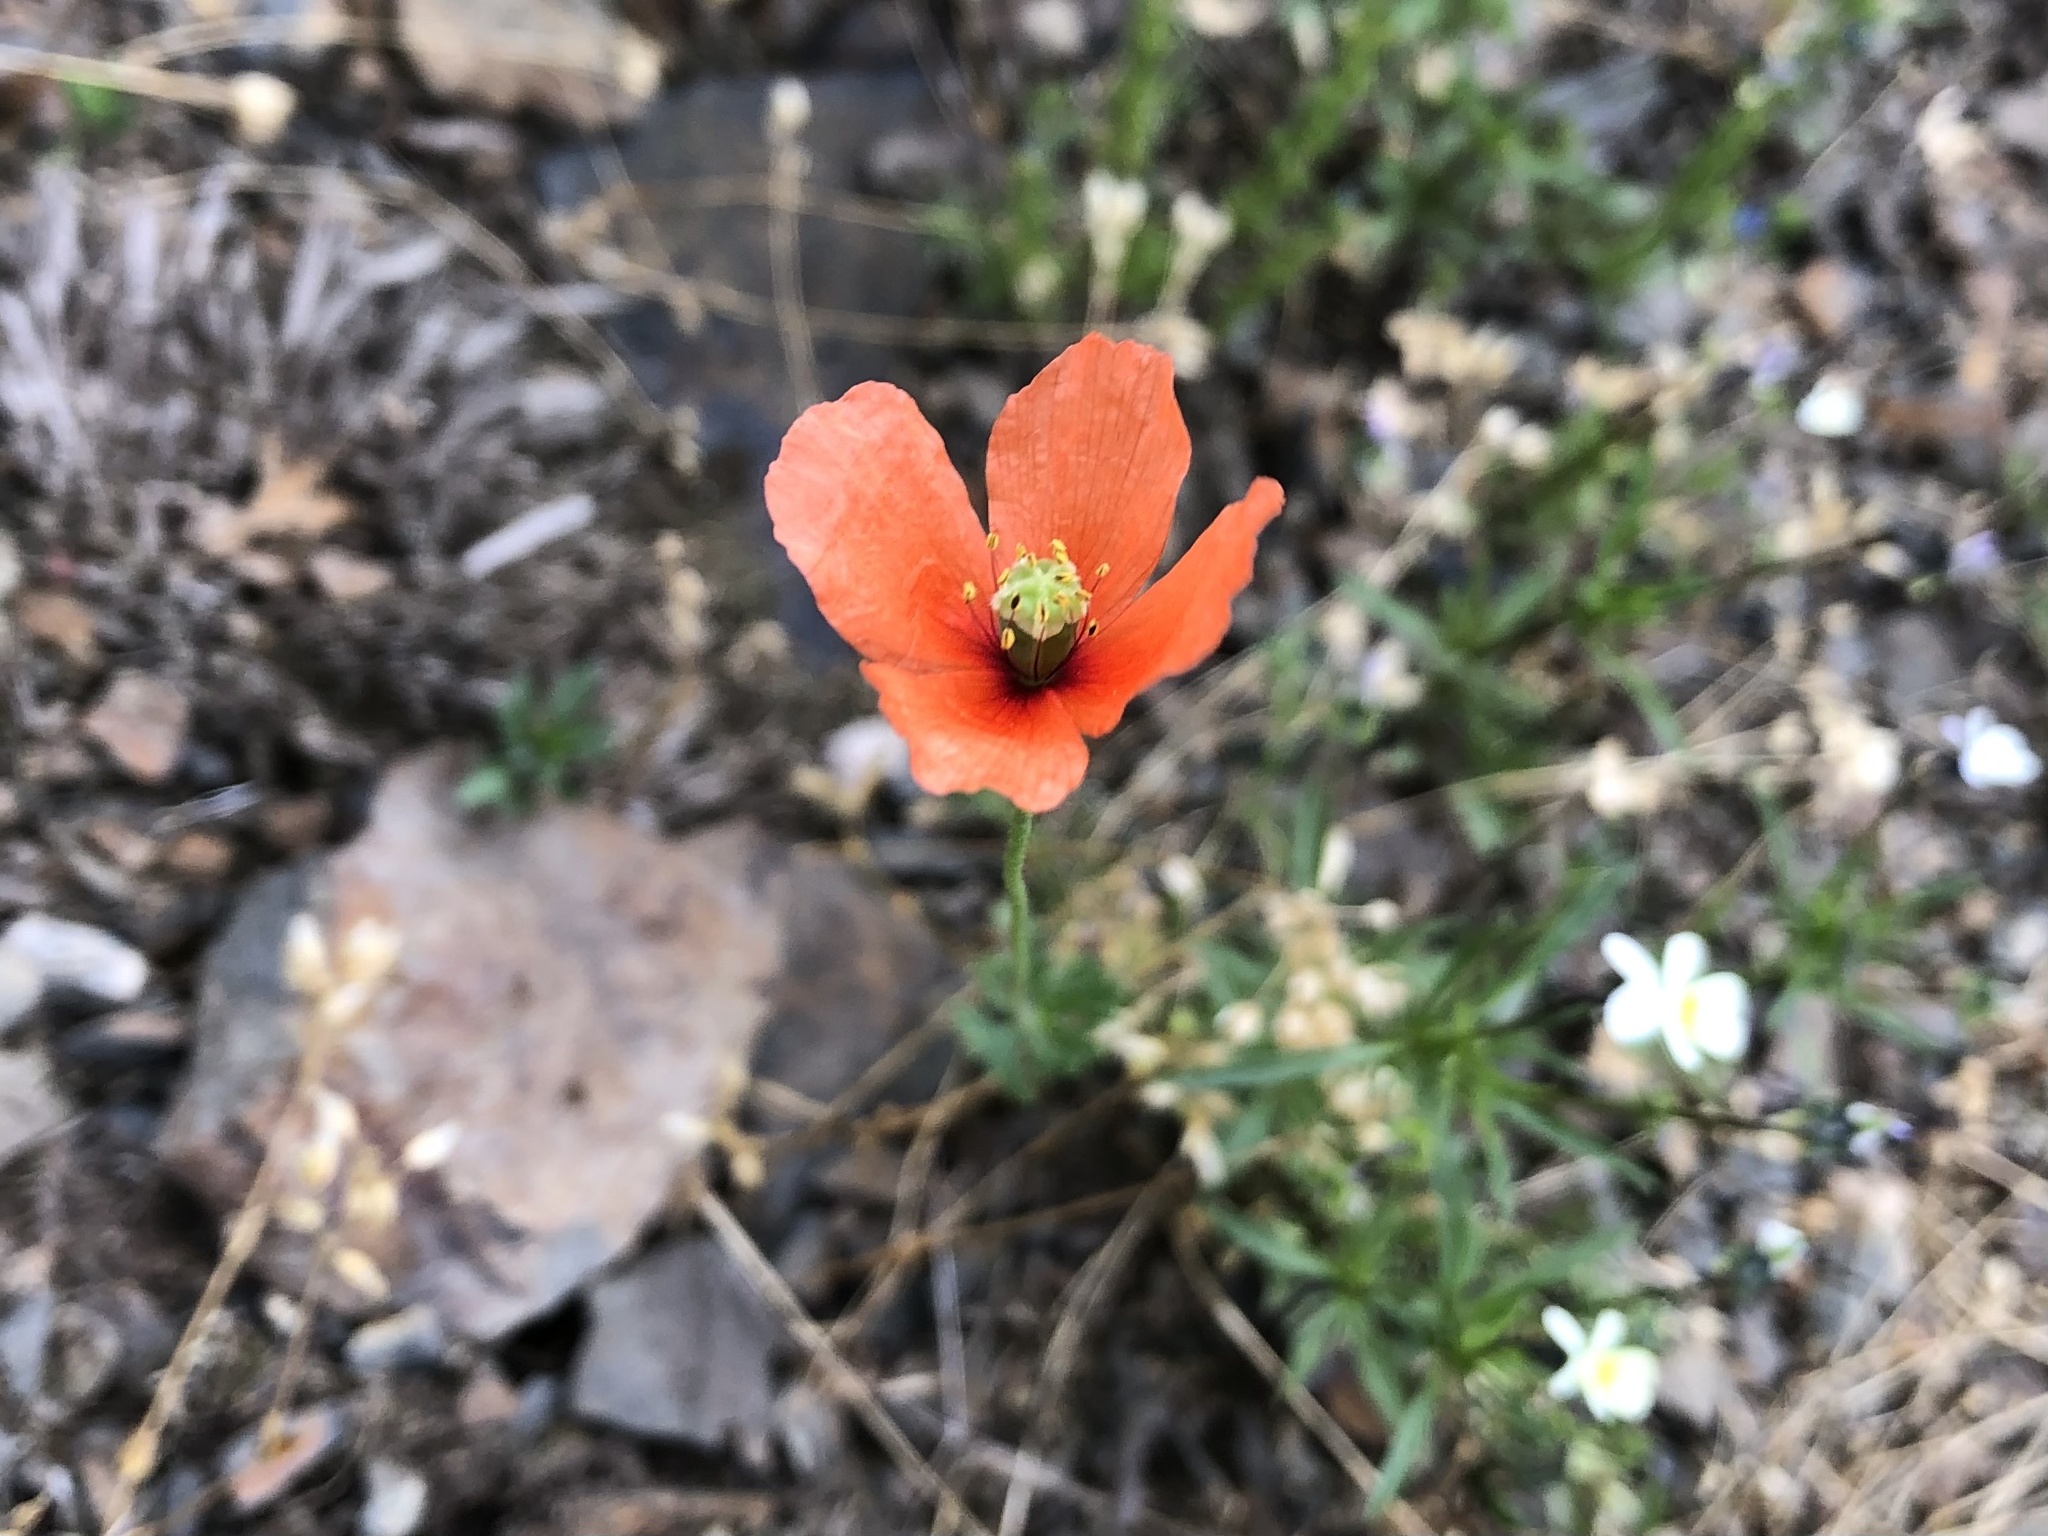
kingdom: Plantae
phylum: Tracheophyta
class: Magnoliopsida
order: Ranunculales
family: Papaveraceae
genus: Papaver
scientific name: Papaver dubium
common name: Long-headed poppy
